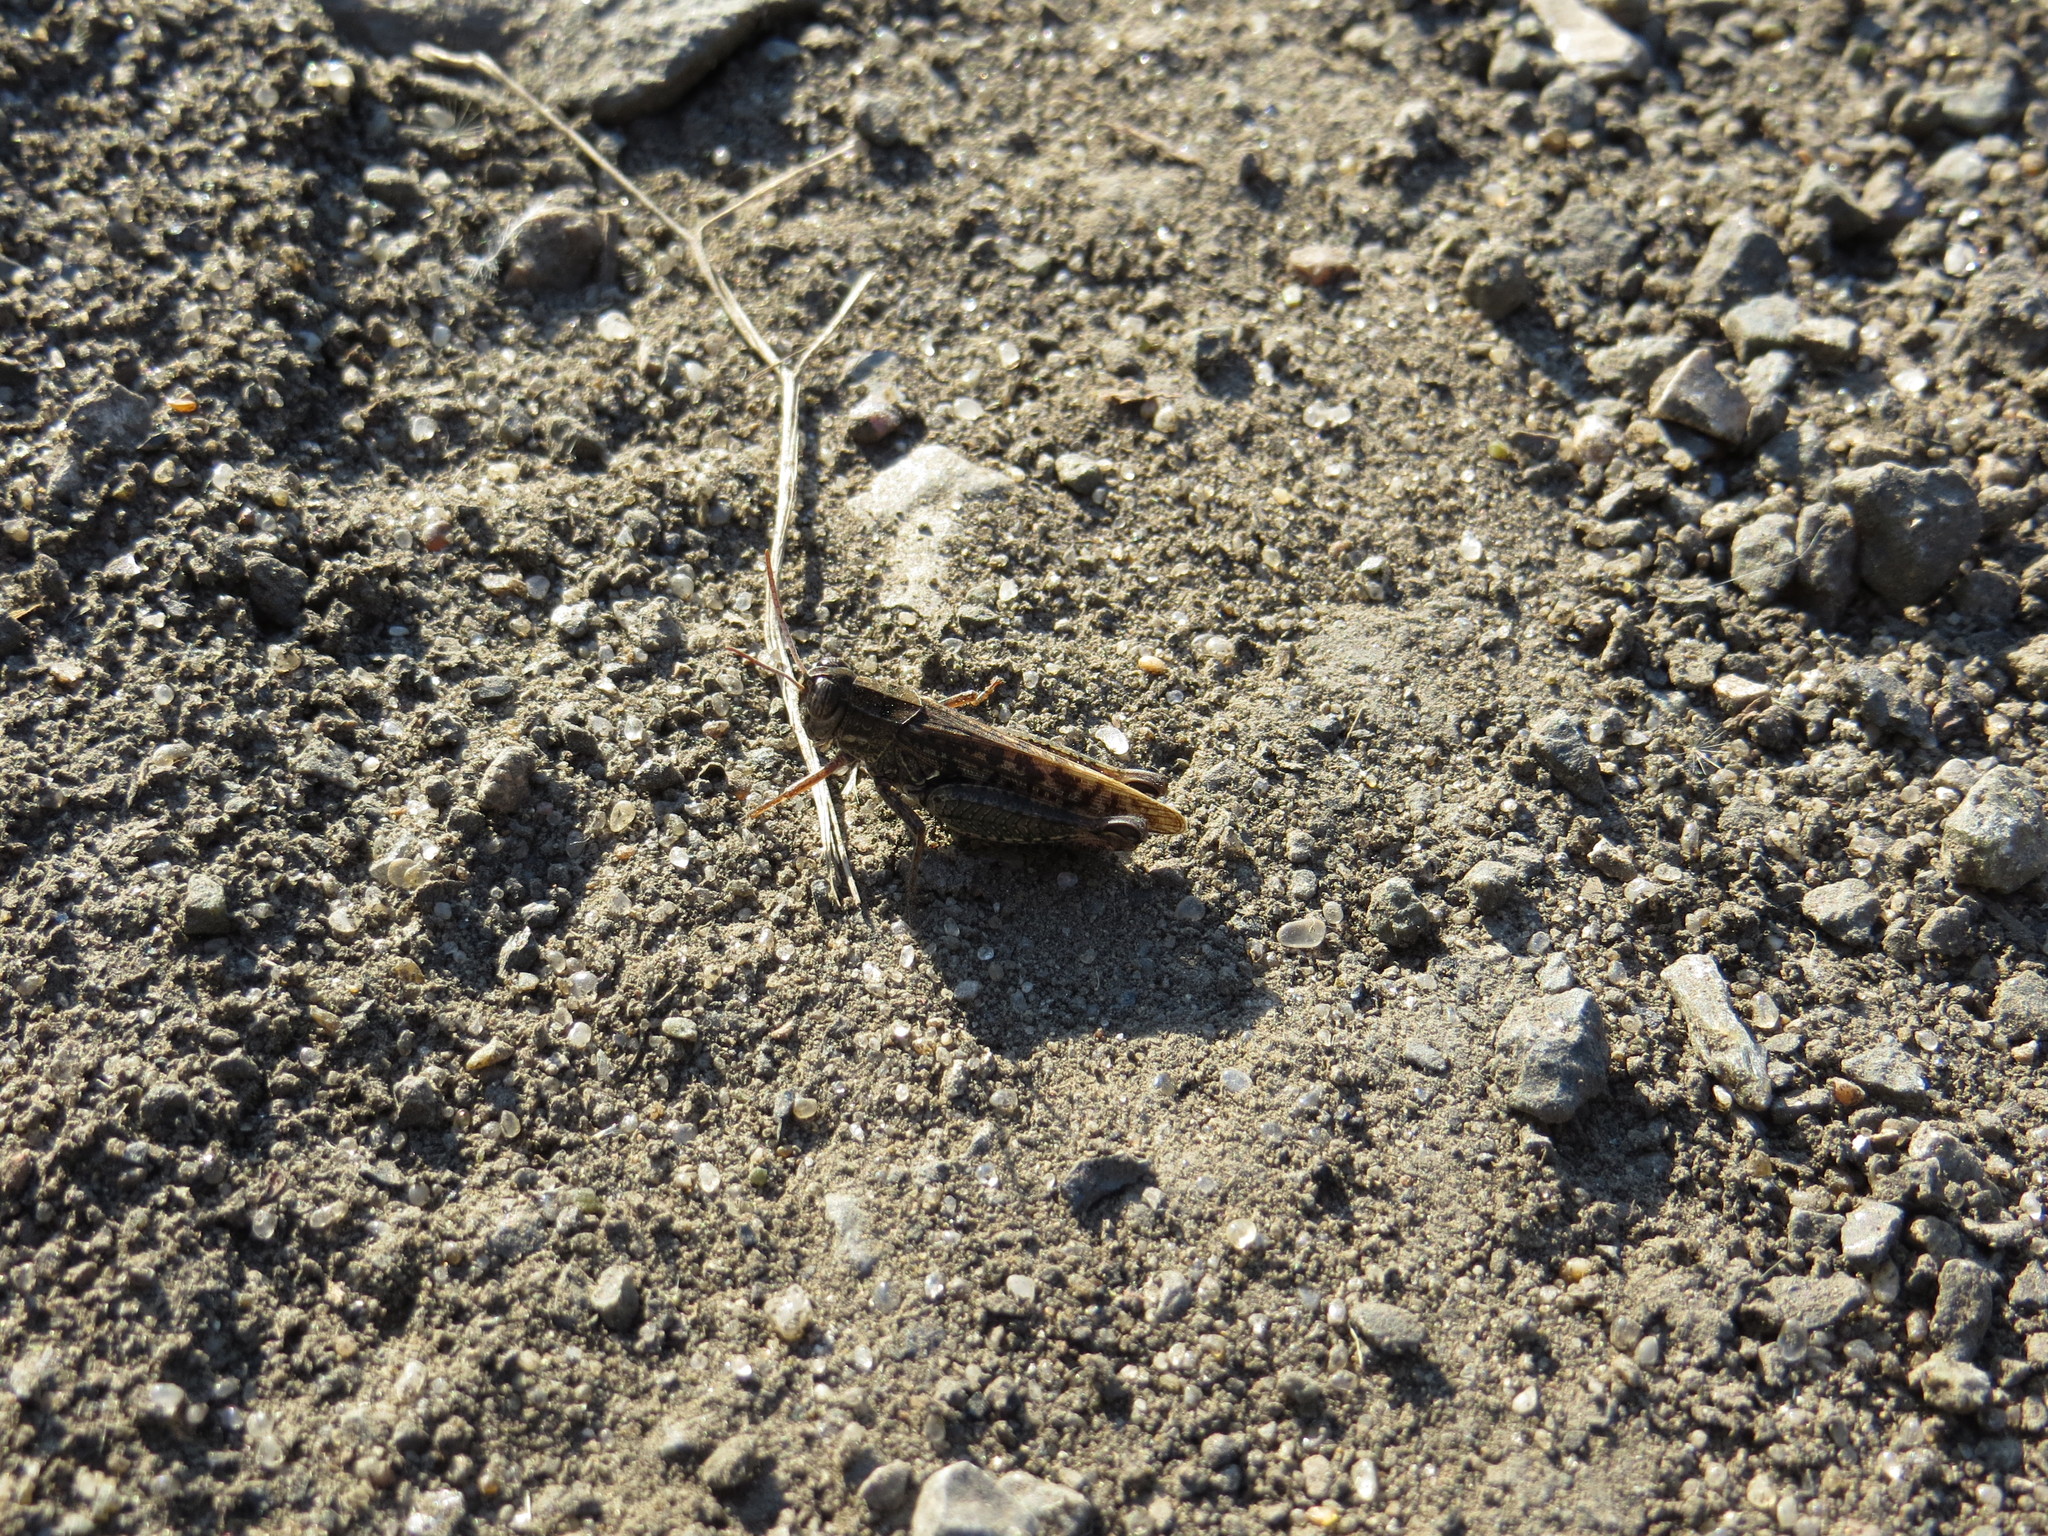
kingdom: Animalia
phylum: Arthropoda
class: Insecta
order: Orthoptera
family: Acrididae
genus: Calliptamus
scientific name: Calliptamus italicus
